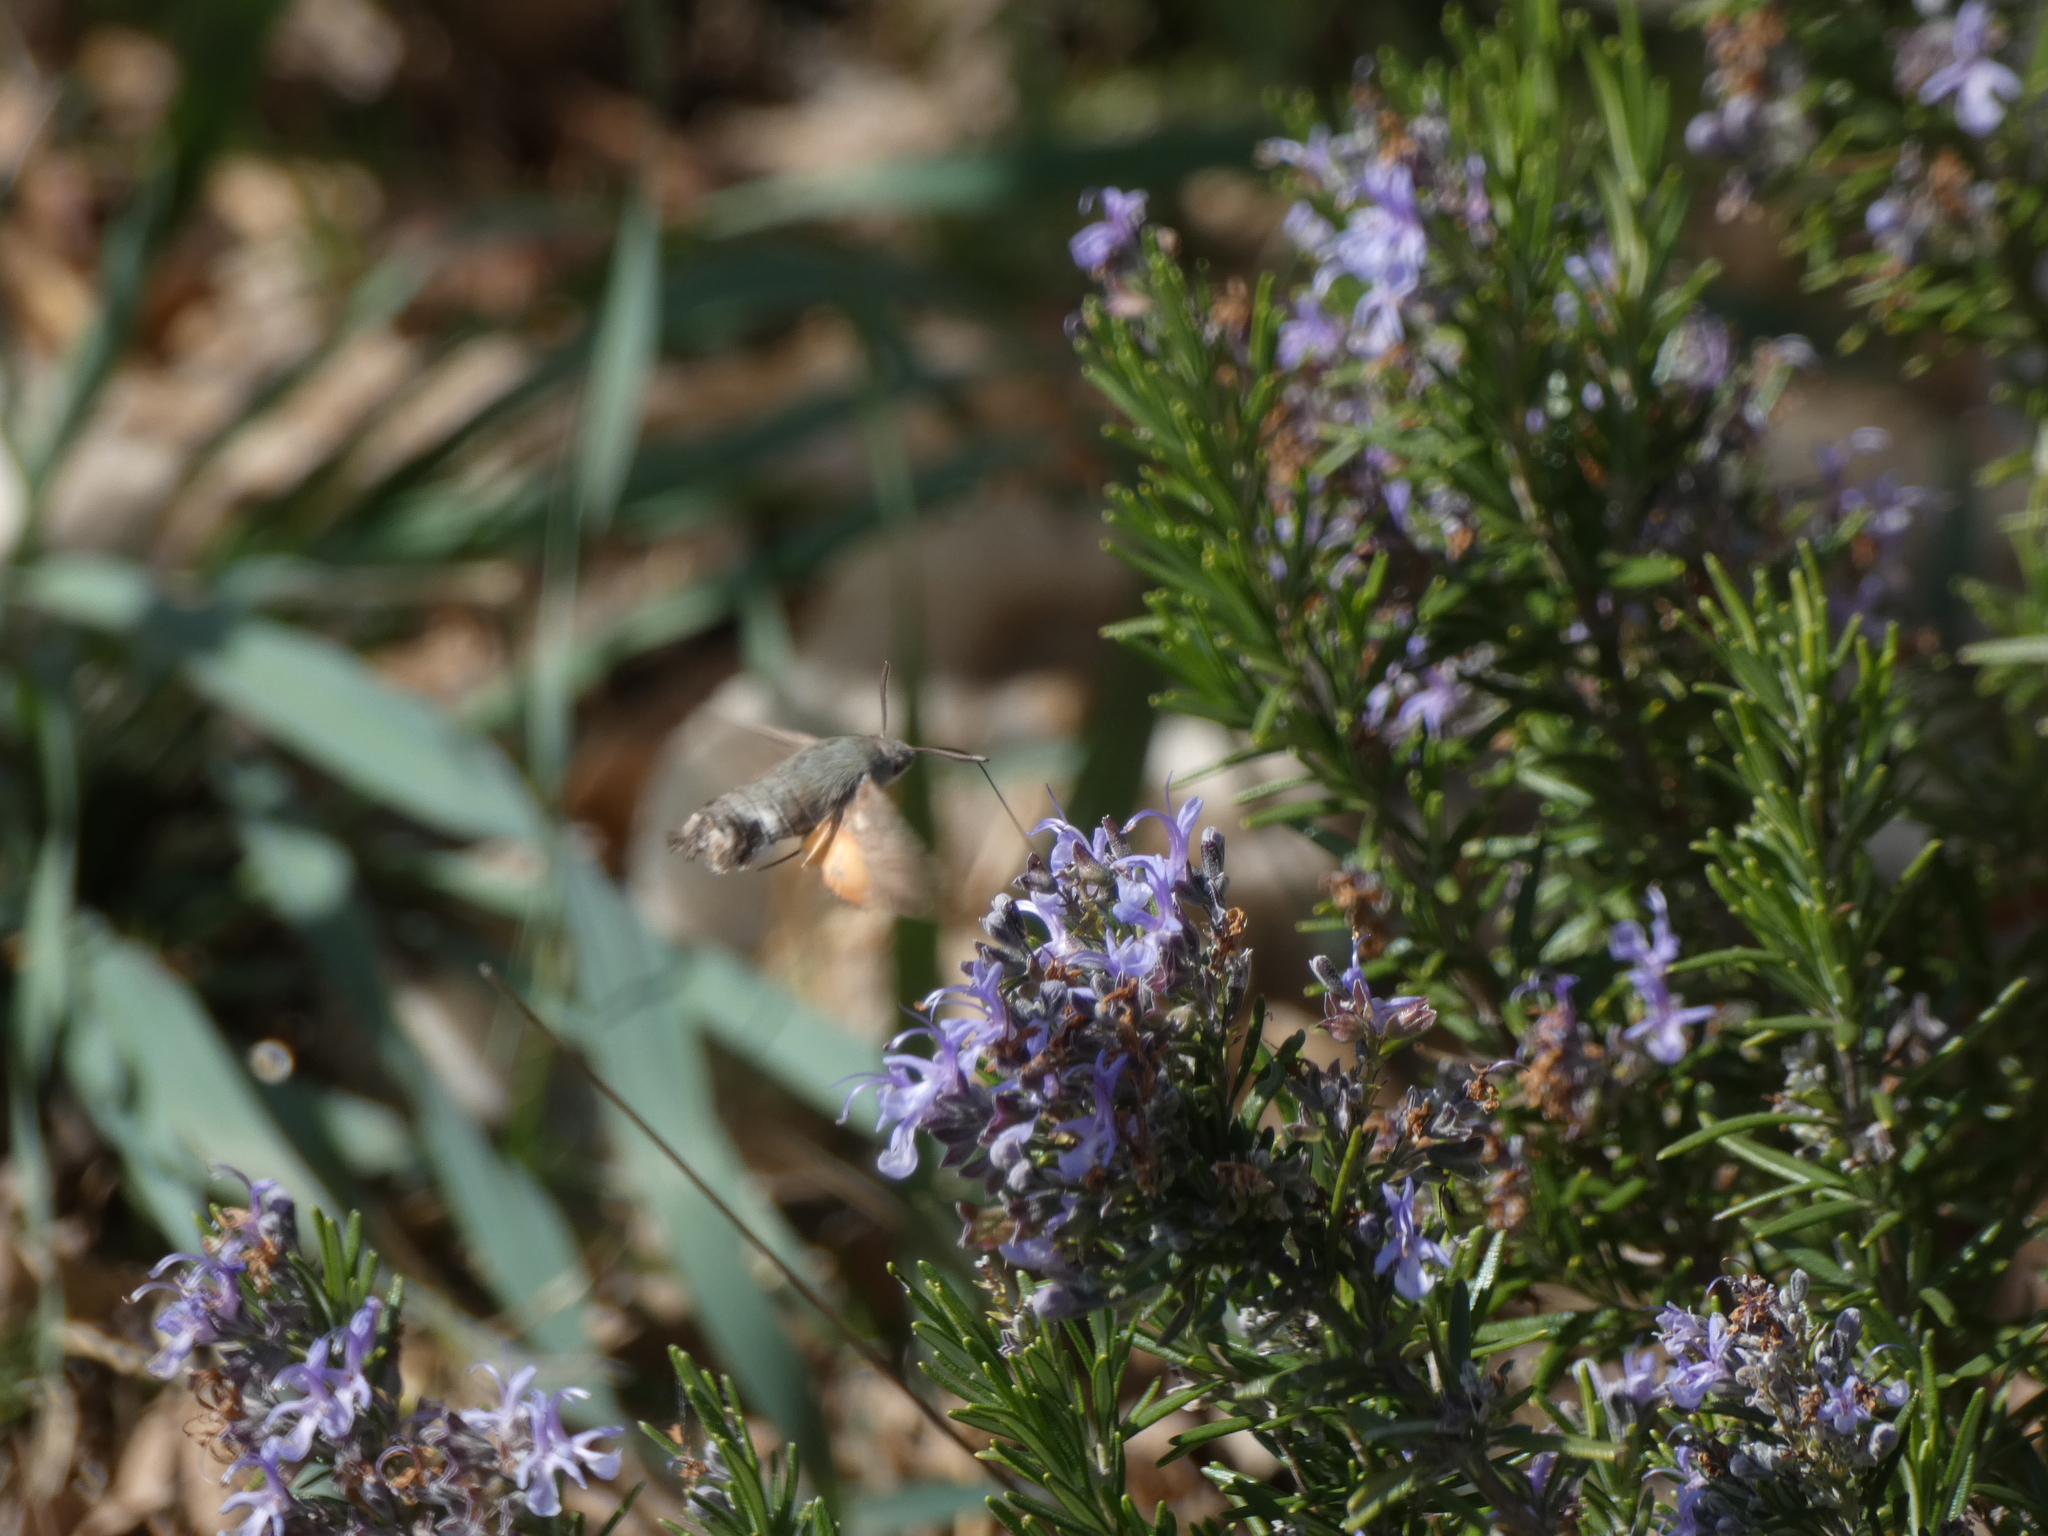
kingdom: Animalia
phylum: Arthropoda
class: Insecta
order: Lepidoptera
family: Sphingidae
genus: Macroglossum
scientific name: Macroglossum stellatarum
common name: Humming-bird hawk-moth
